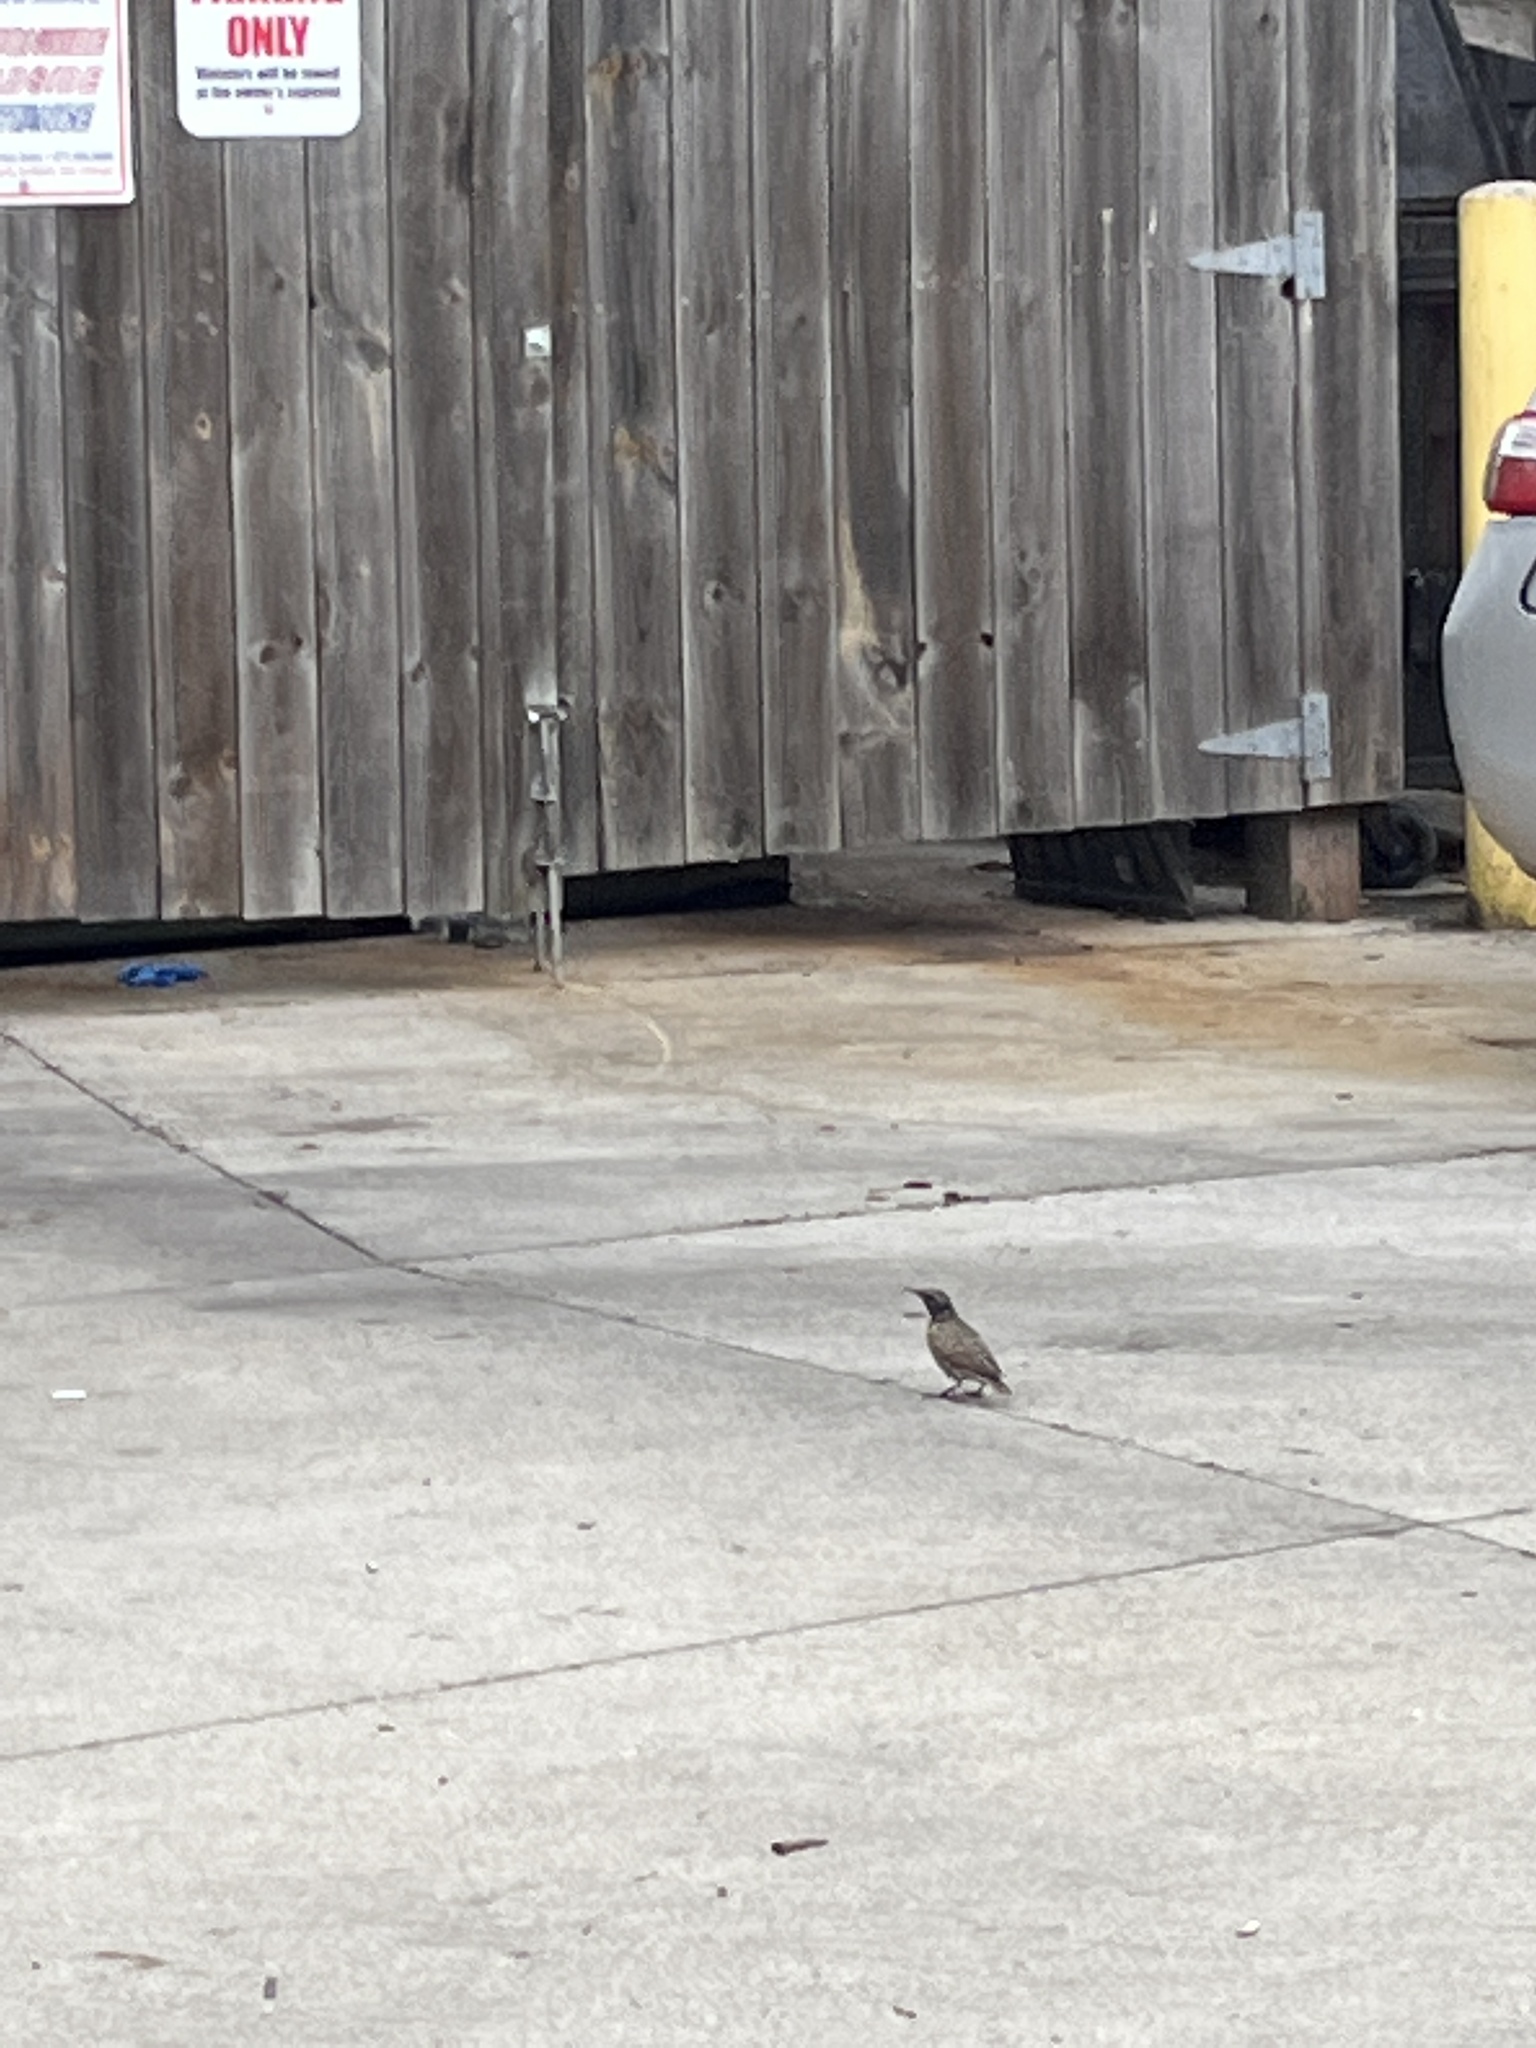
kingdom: Animalia
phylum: Chordata
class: Aves
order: Passeriformes
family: Sturnidae
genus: Sturnus
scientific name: Sturnus vulgaris
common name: Common starling
